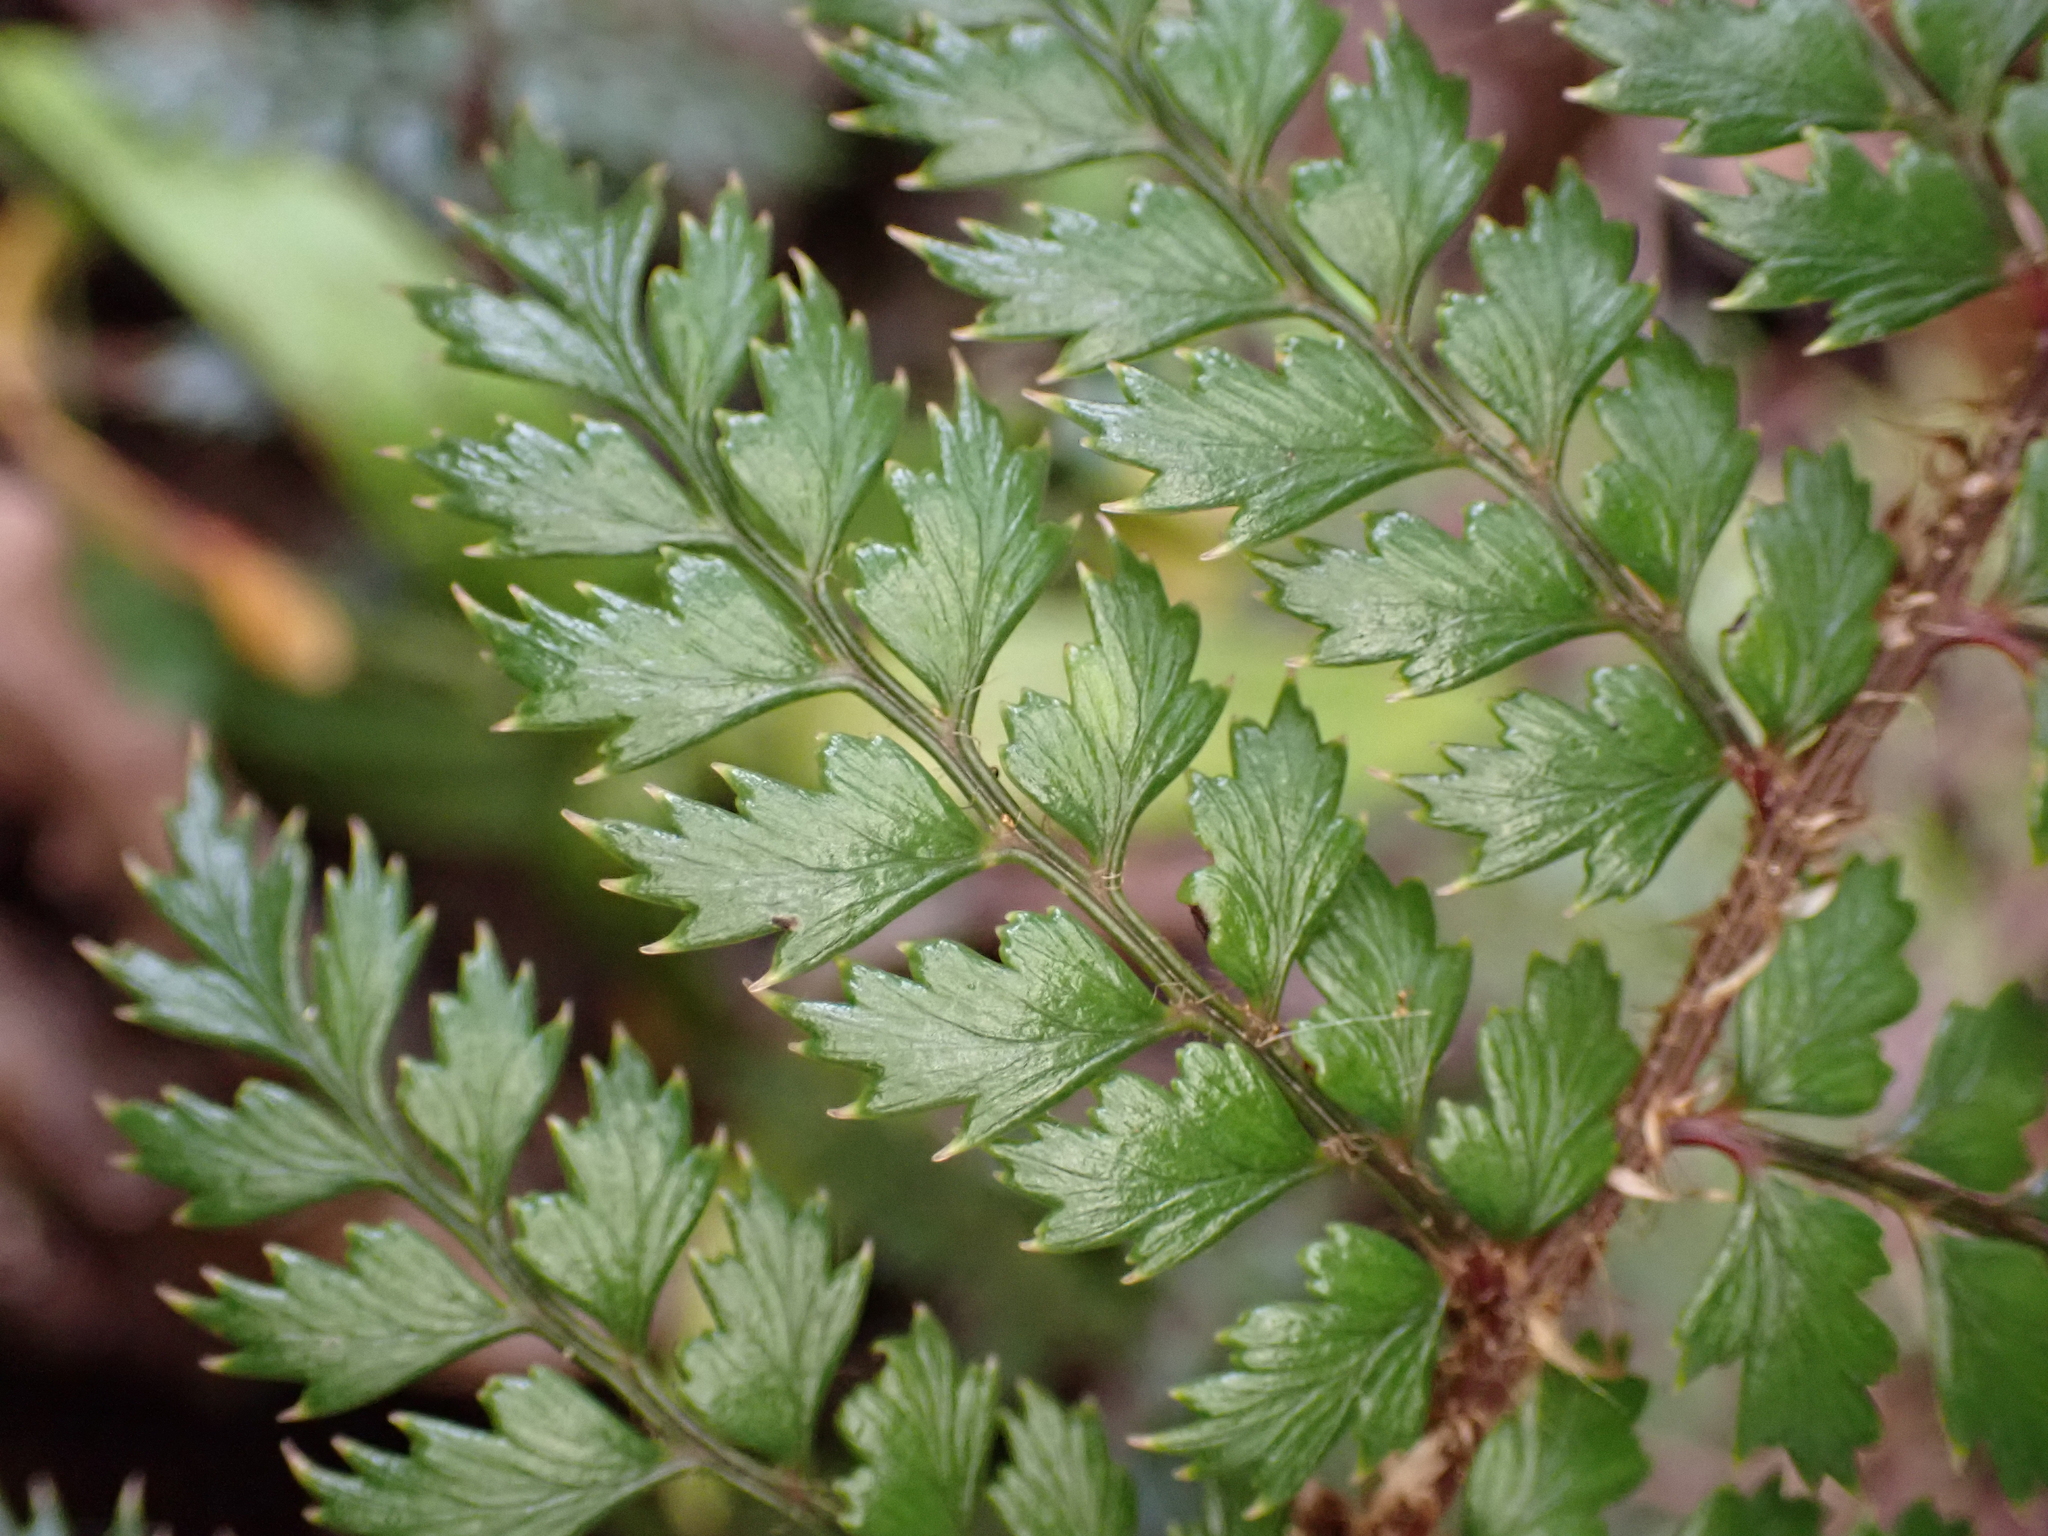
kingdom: Plantae
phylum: Tracheophyta
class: Polypodiopsida
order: Polypodiales
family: Dryopteridaceae
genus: Polystichum
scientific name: Polystichum vestitum
